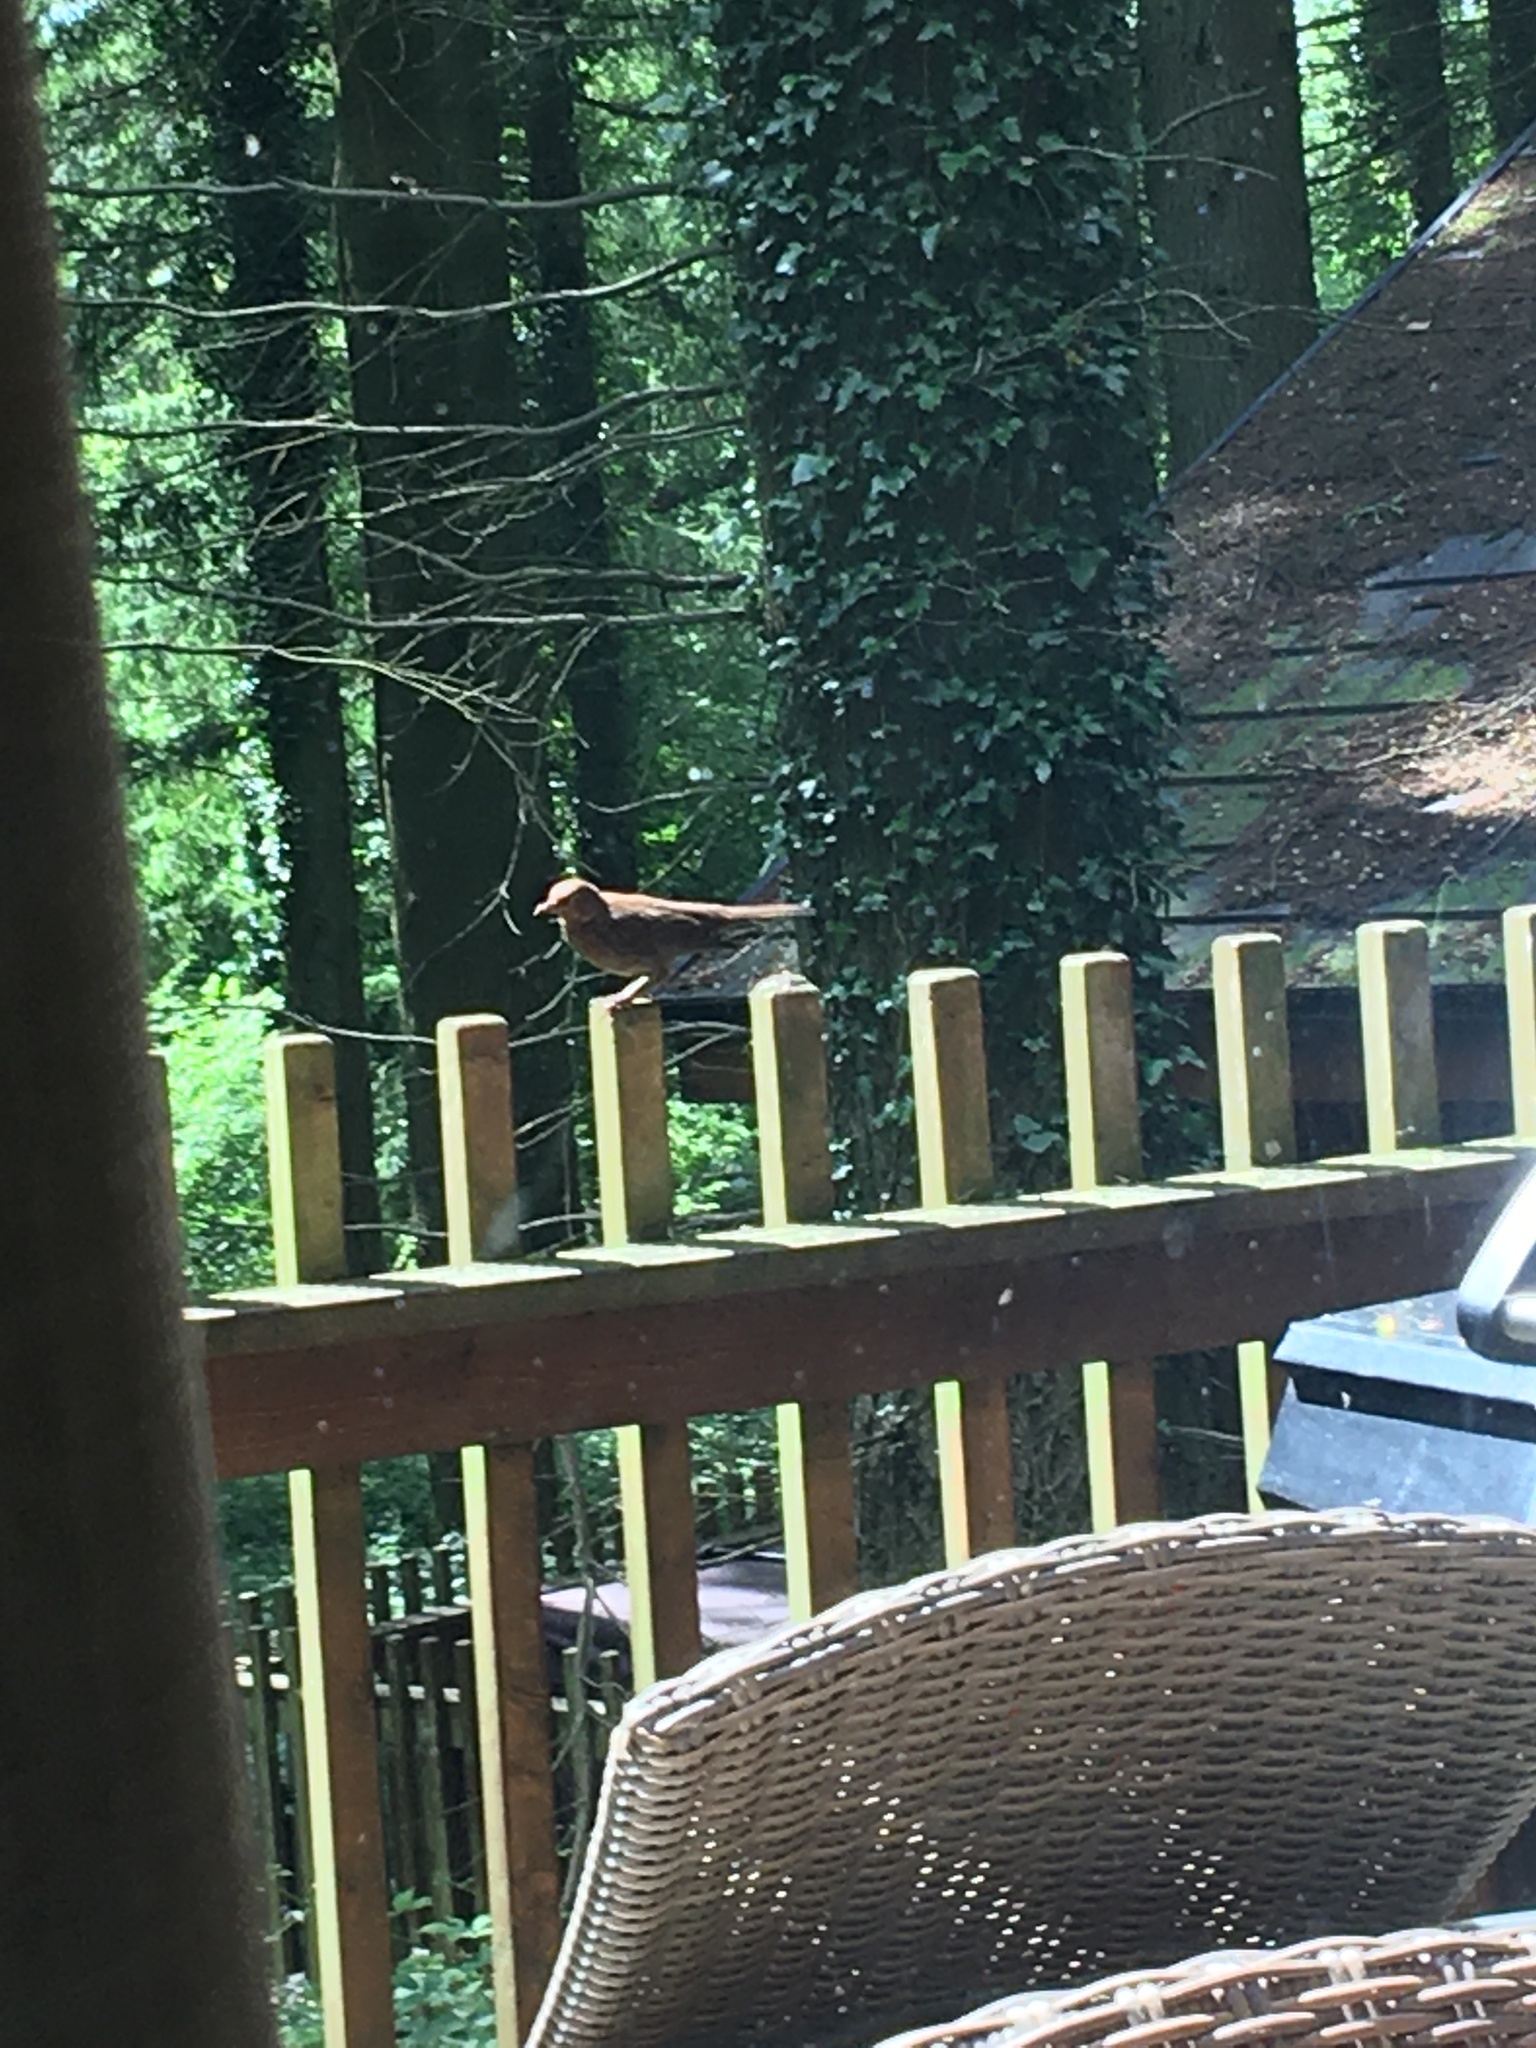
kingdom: Animalia
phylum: Chordata
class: Aves
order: Passeriformes
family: Turdidae
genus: Turdus
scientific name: Turdus merula
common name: Common blackbird
